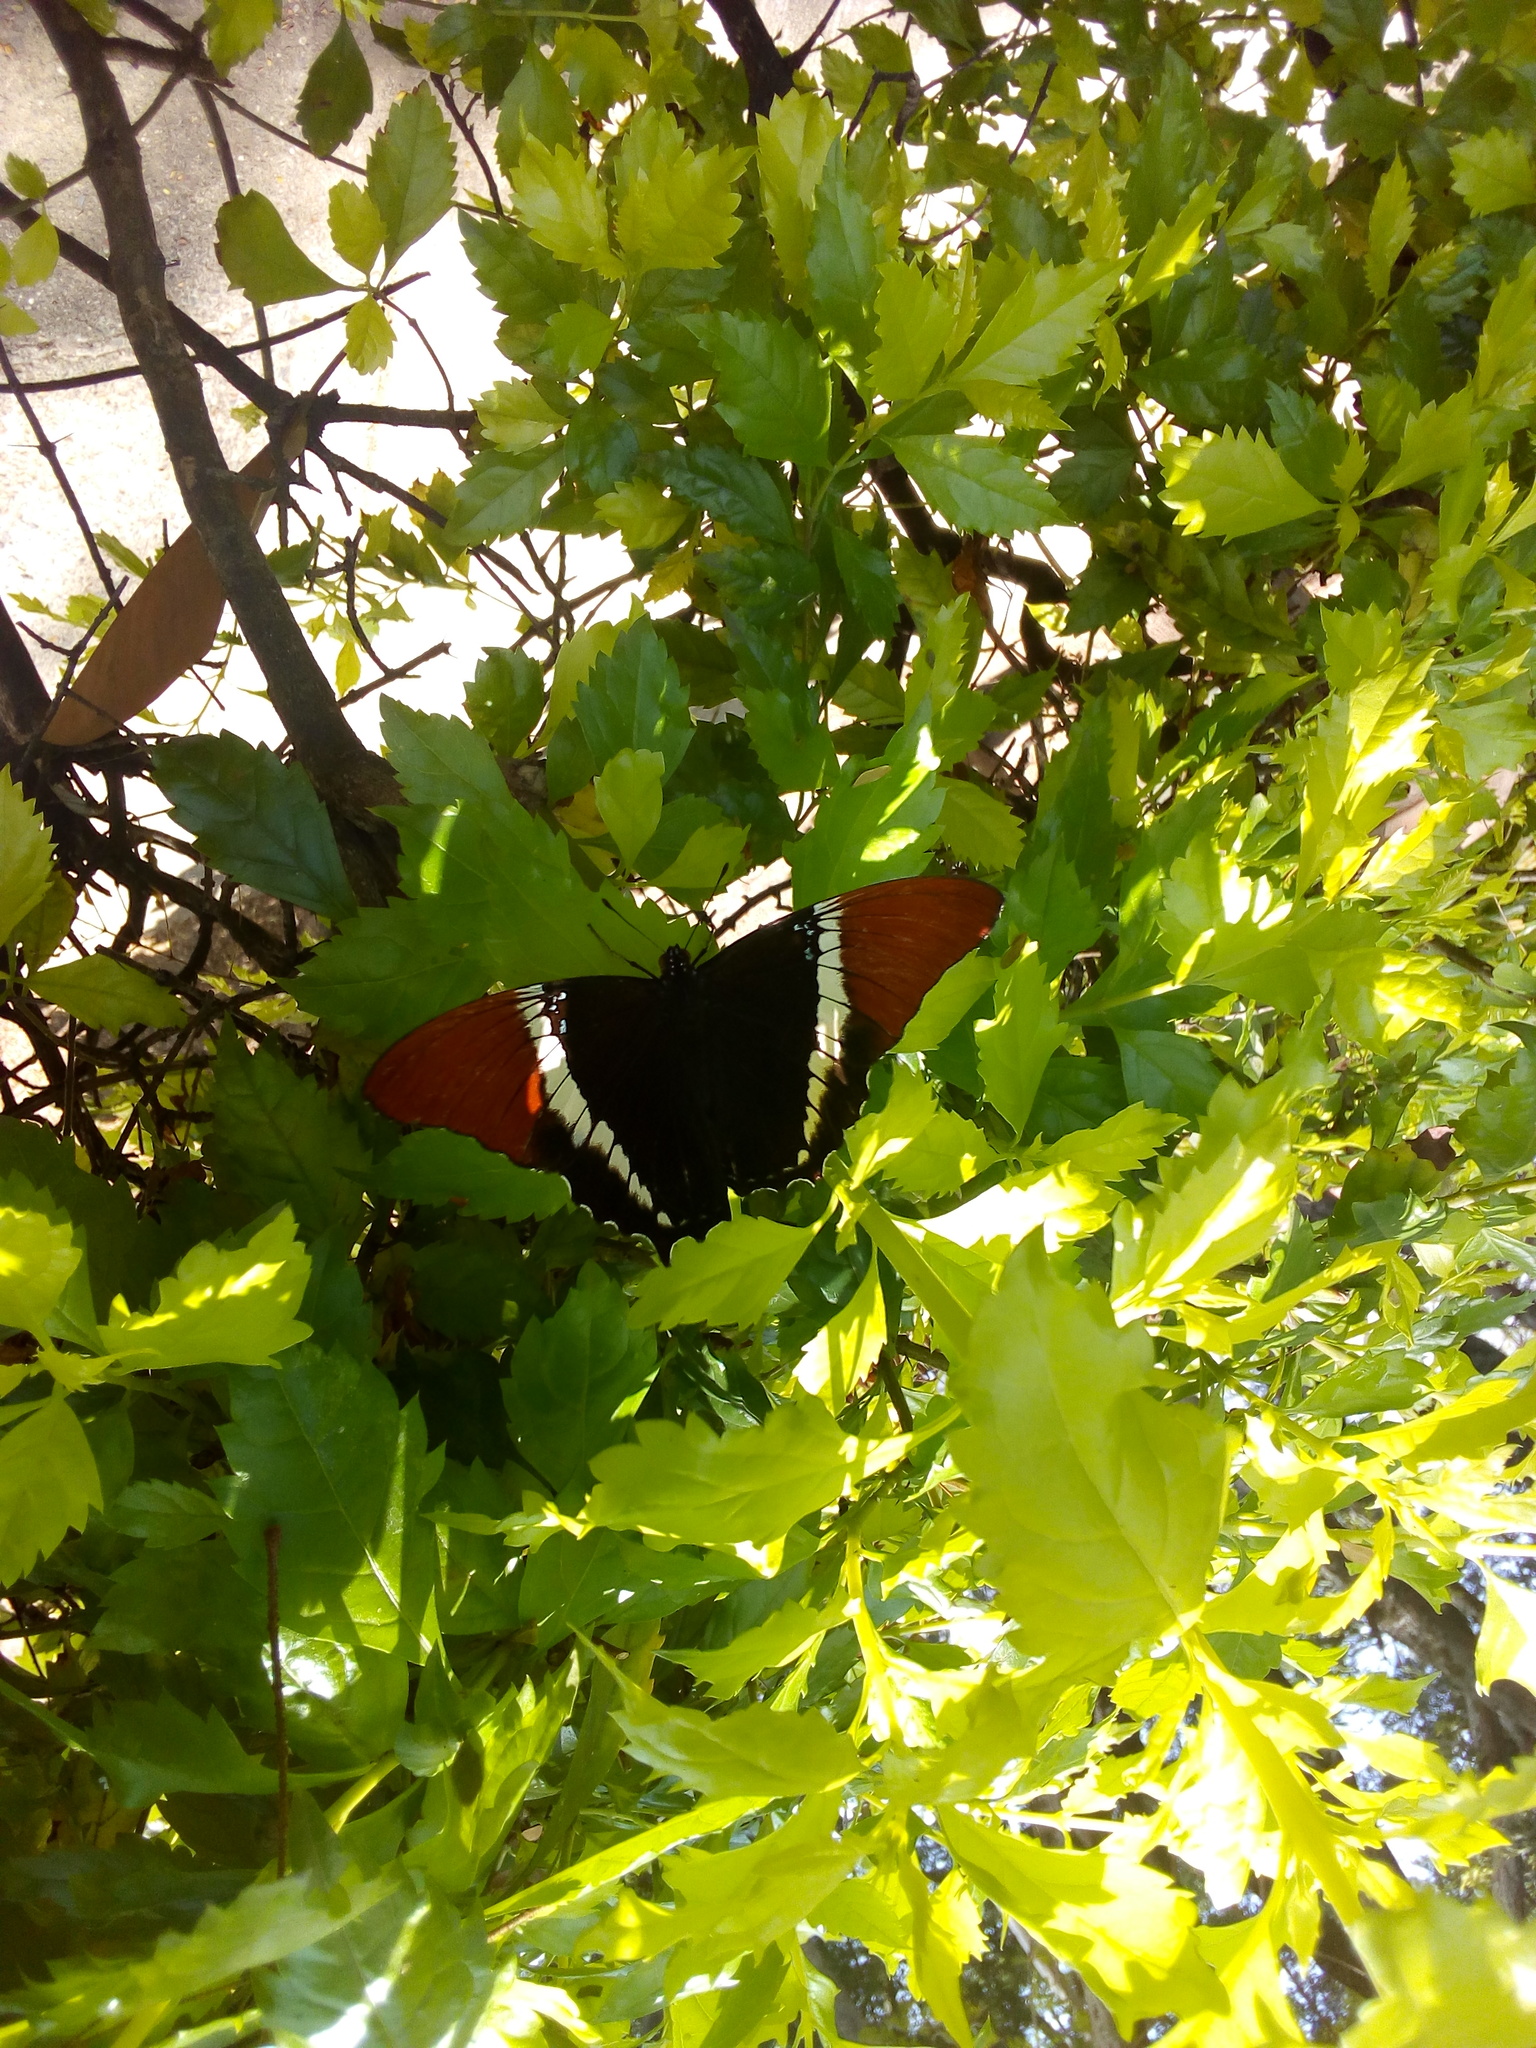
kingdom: Animalia
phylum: Arthropoda
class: Insecta
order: Lepidoptera
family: Nymphalidae
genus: Siproeta
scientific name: Siproeta epaphus
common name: Rusty-tipped page
